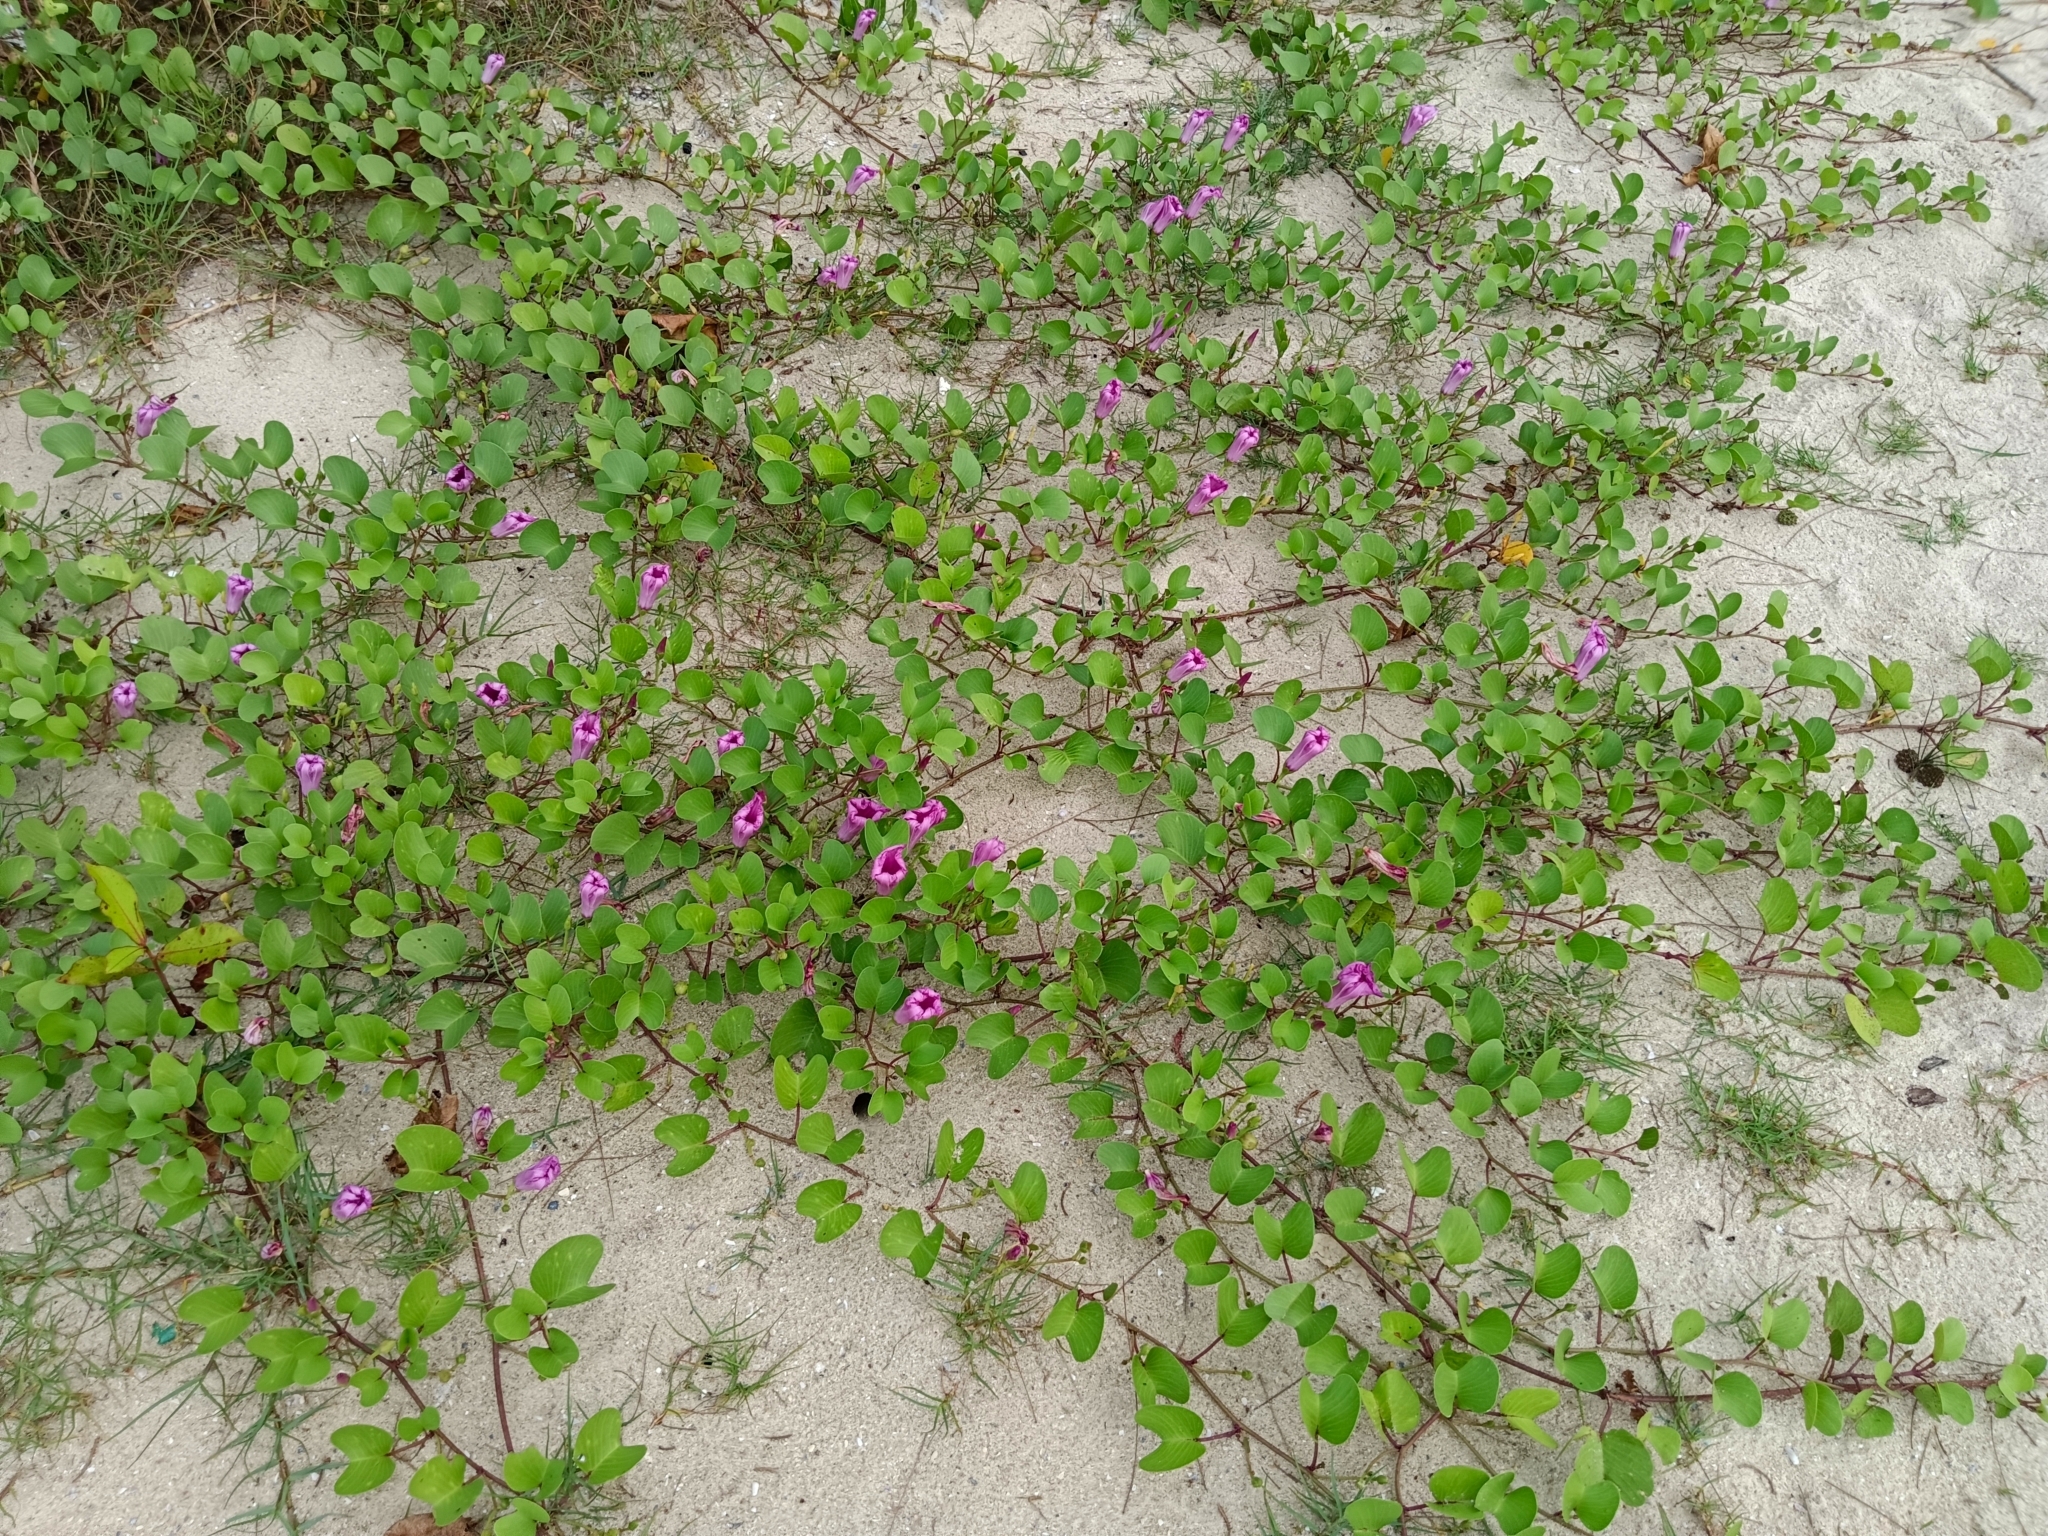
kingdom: Plantae
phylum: Tracheophyta
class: Magnoliopsida
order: Solanales
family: Convolvulaceae
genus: Ipomoea
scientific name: Ipomoea pes-caprae
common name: Beach morning glory
